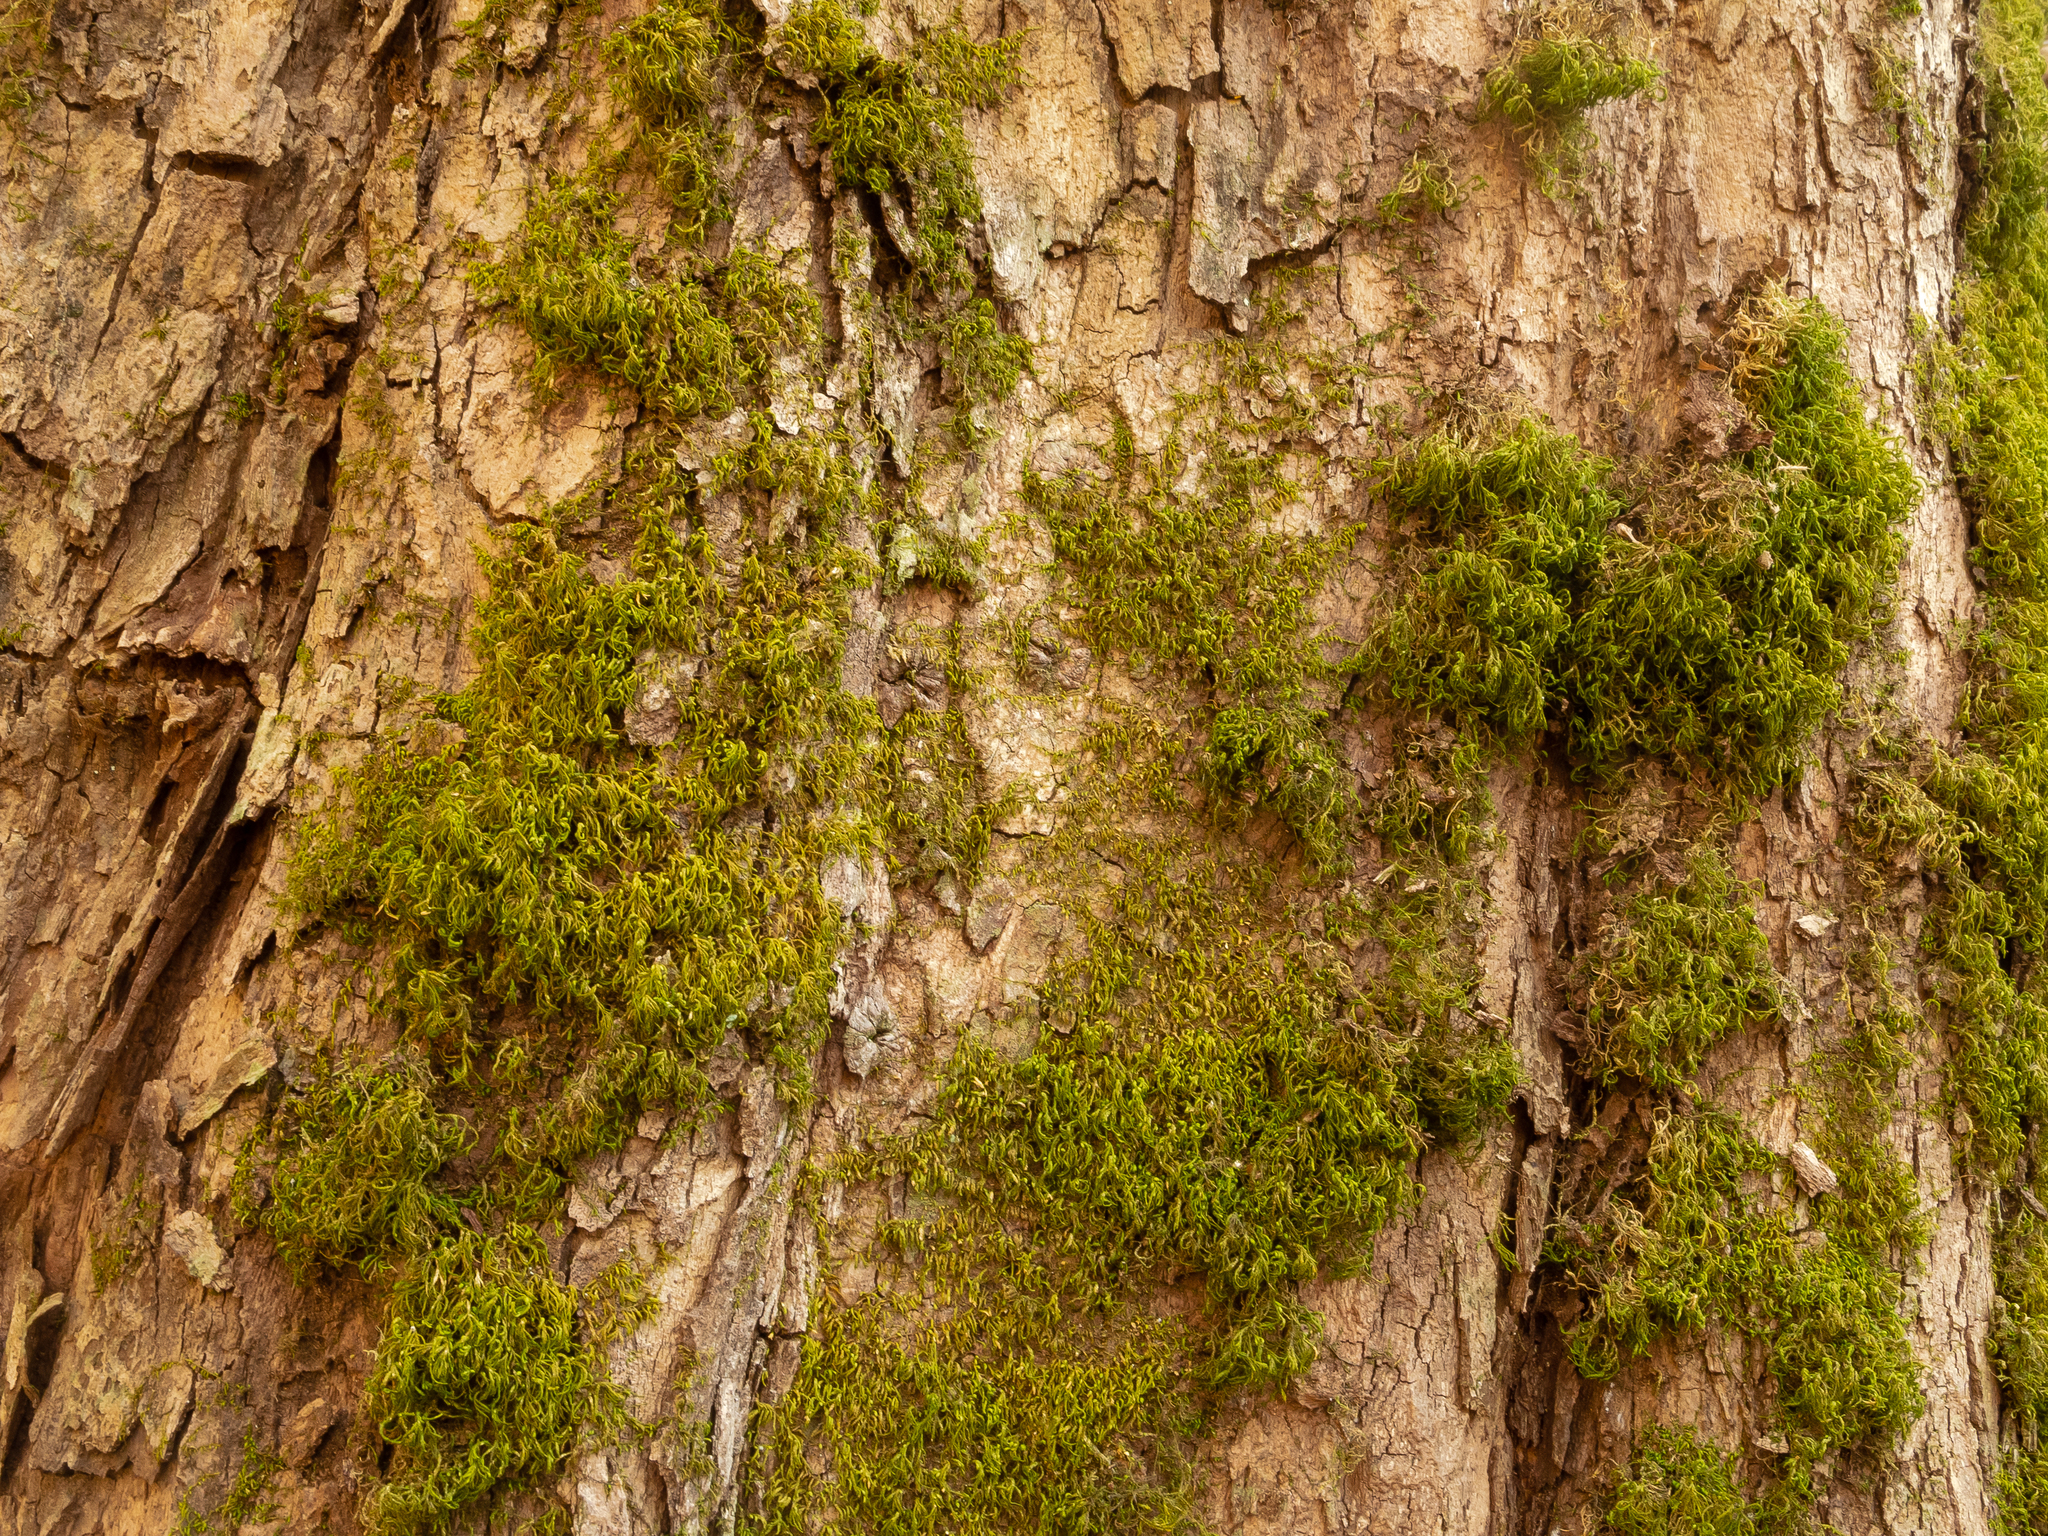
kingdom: Plantae
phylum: Bryophyta
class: Bryopsida
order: Hypnales
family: Neckeraceae
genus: Pseudanomodon
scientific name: Pseudanomodon attenuatus
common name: Tree-skirt moss
